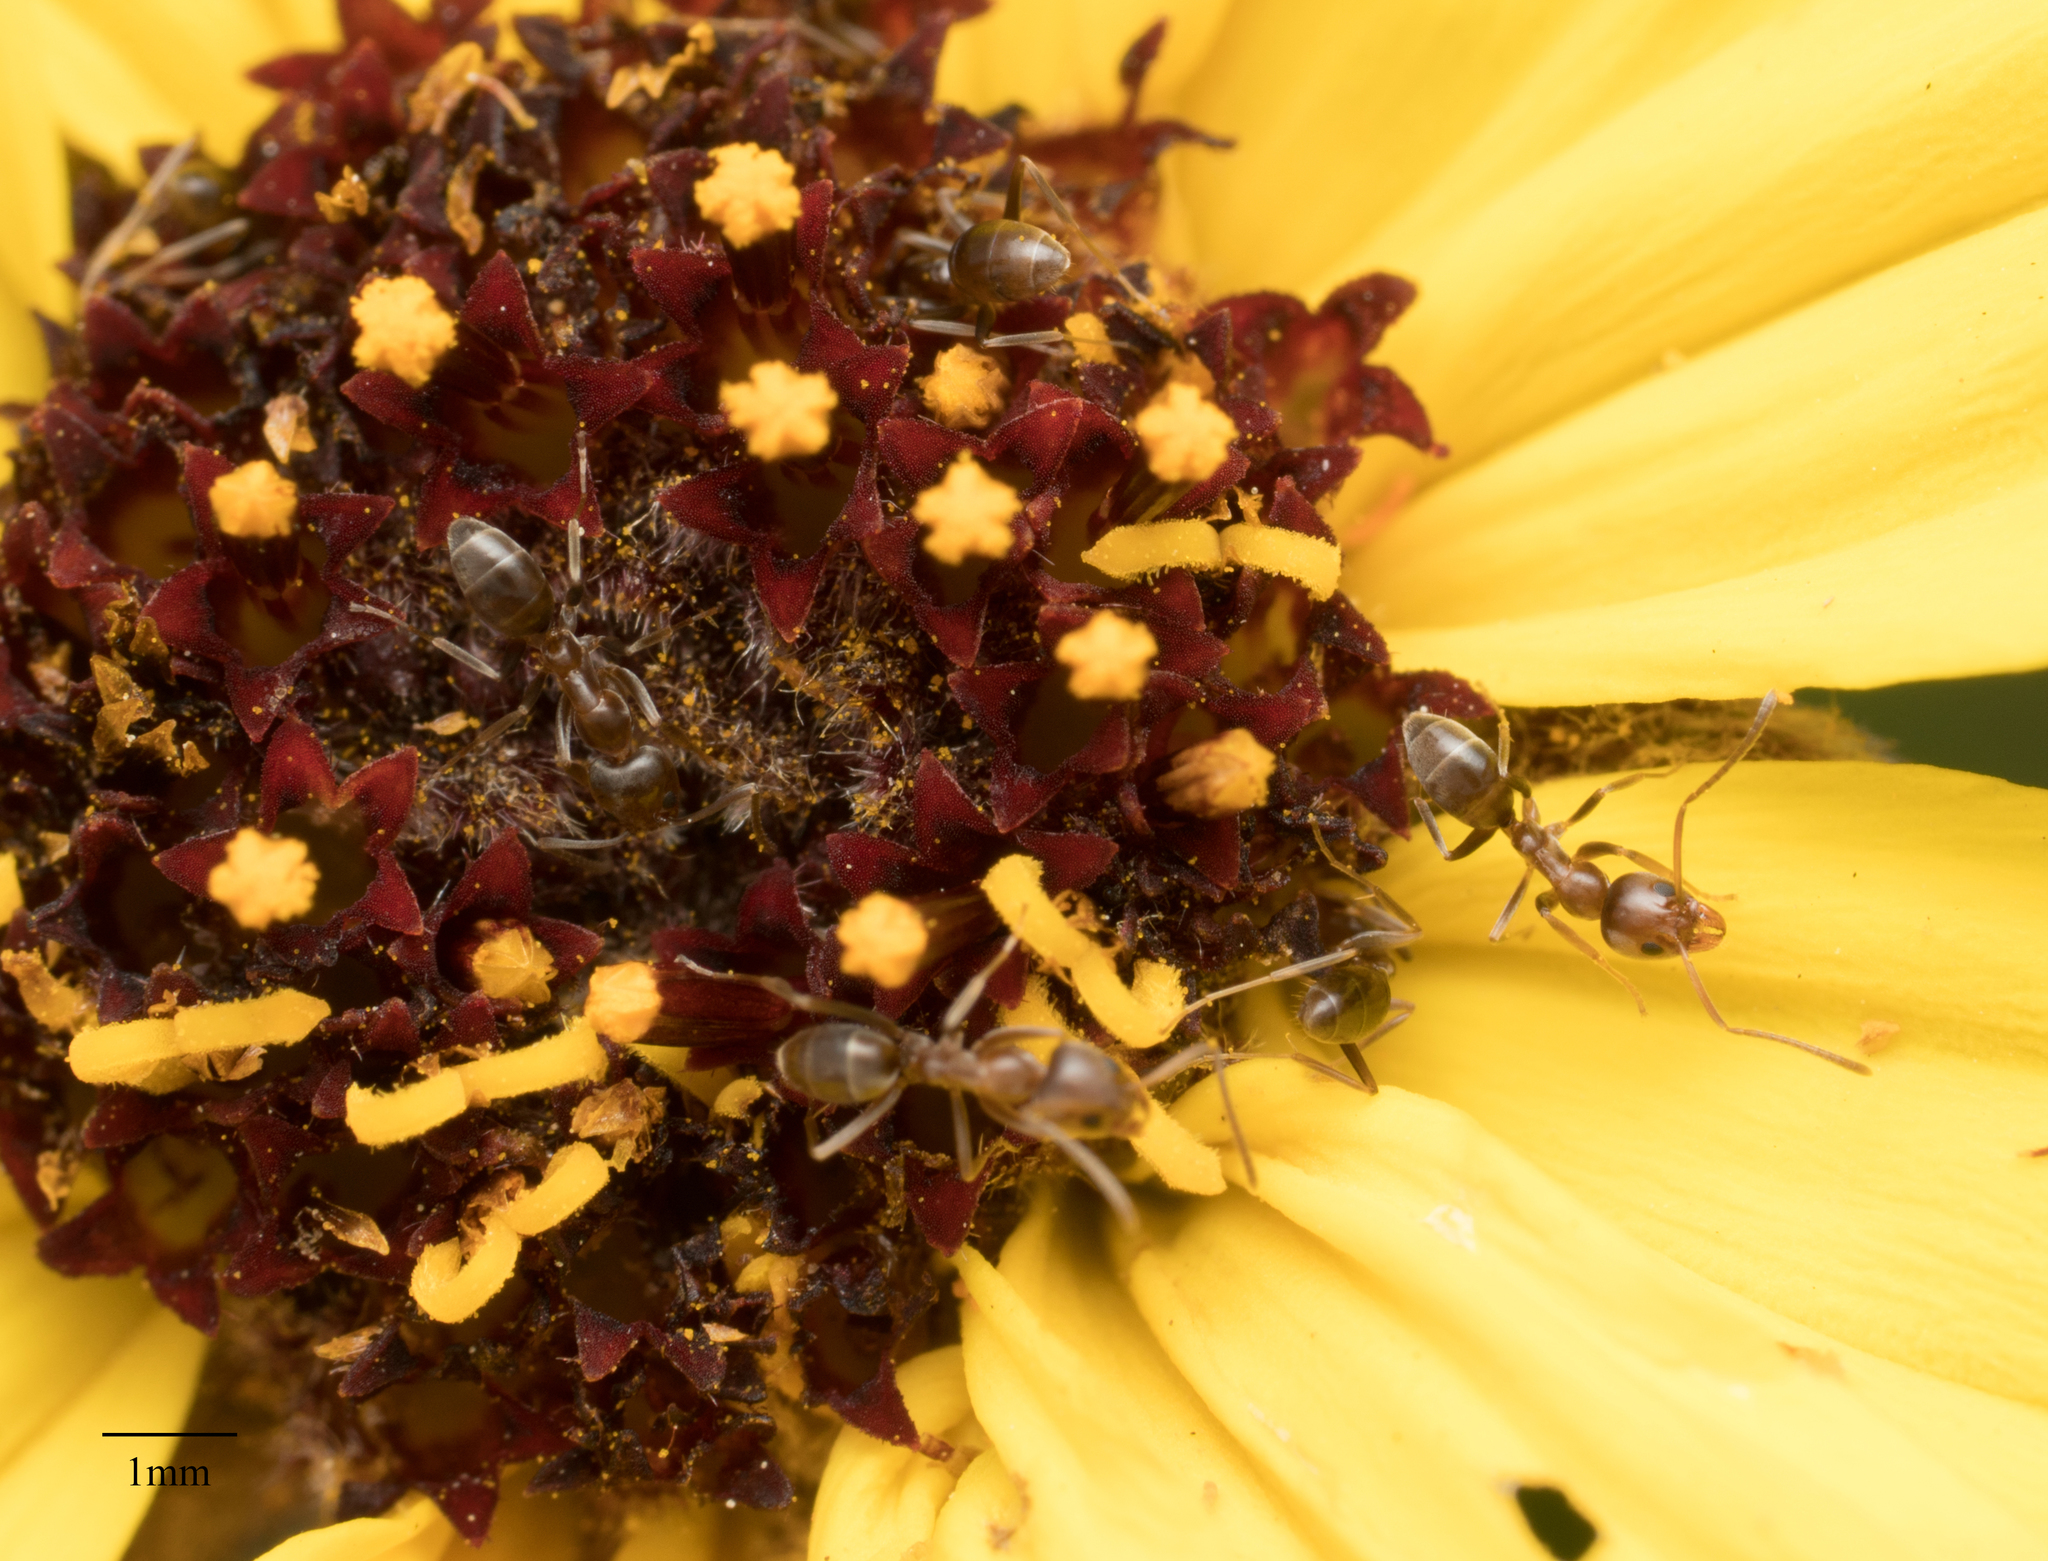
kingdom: Animalia
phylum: Arthropoda
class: Insecta
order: Hymenoptera
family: Formicidae
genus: Linepithema
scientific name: Linepithema humile
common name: Argentine ant
